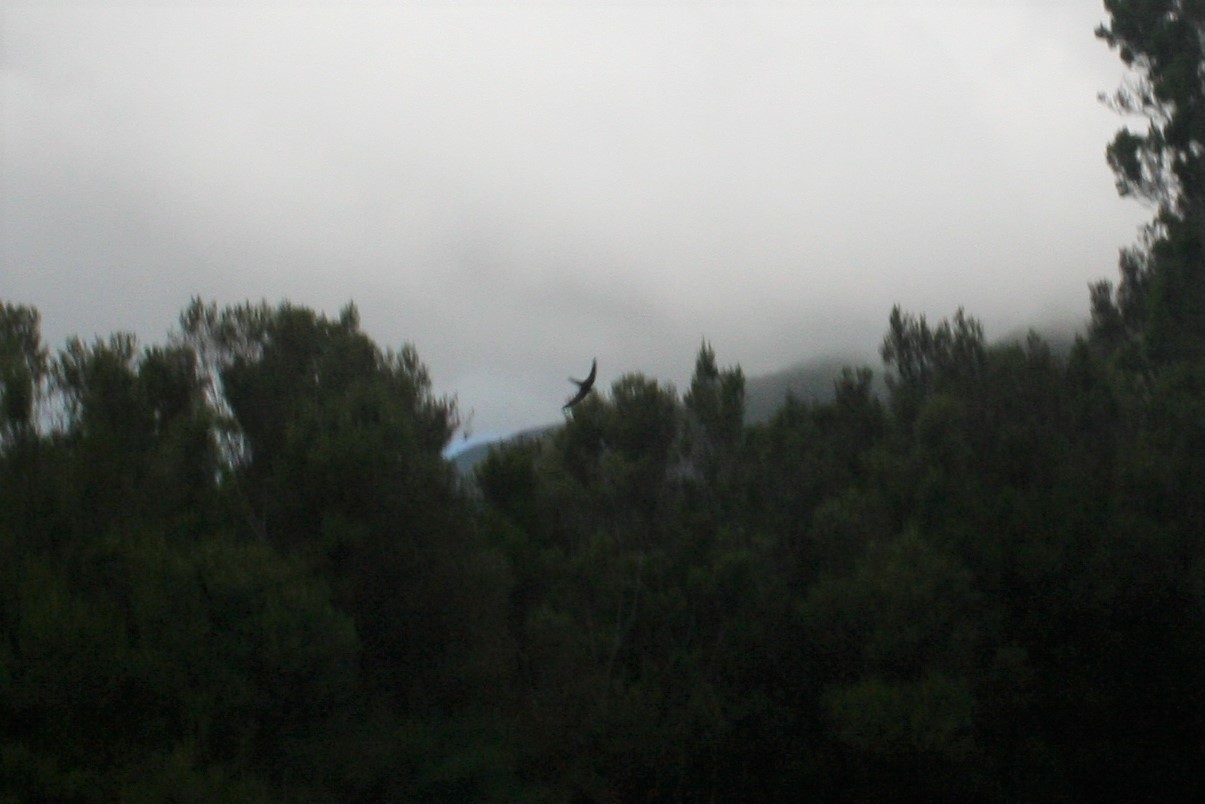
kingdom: Animalia
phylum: Chordata
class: Aves
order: Apodiformes
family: Apodidae
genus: Apus
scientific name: Apus unicolor
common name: Plain swift
